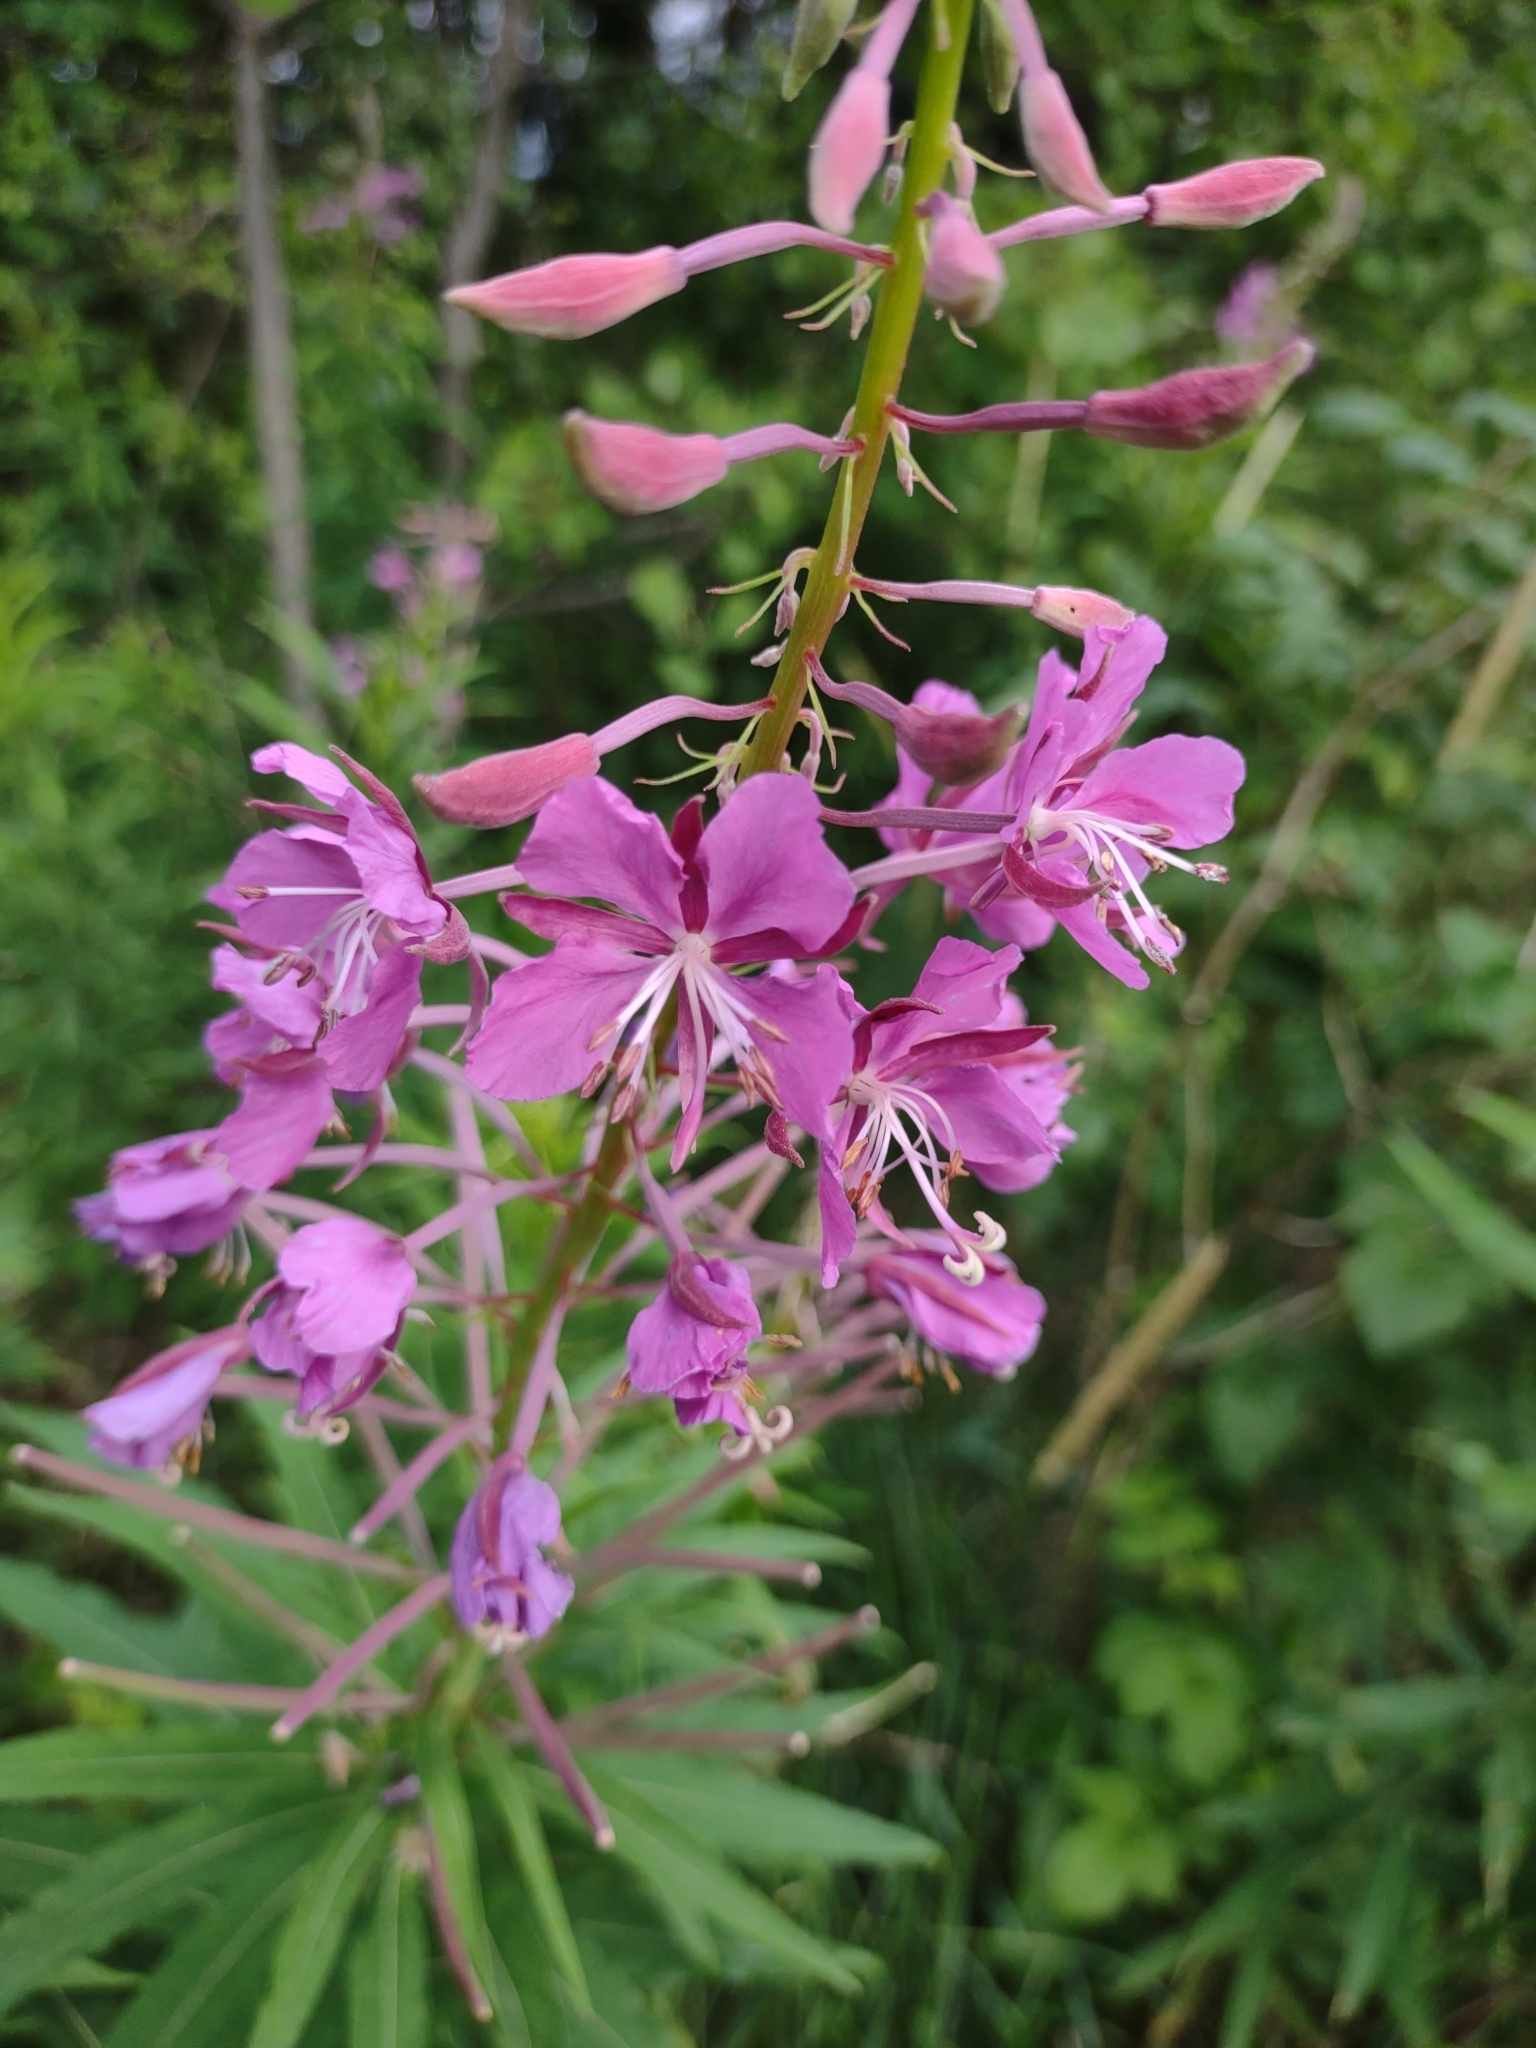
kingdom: Plantae
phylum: Tracheophyta
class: Magnoliopsida
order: Myrtales
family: Onagraceae
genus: Chamaenerion
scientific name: Chamaenerion angustifolium
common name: Fireweed
